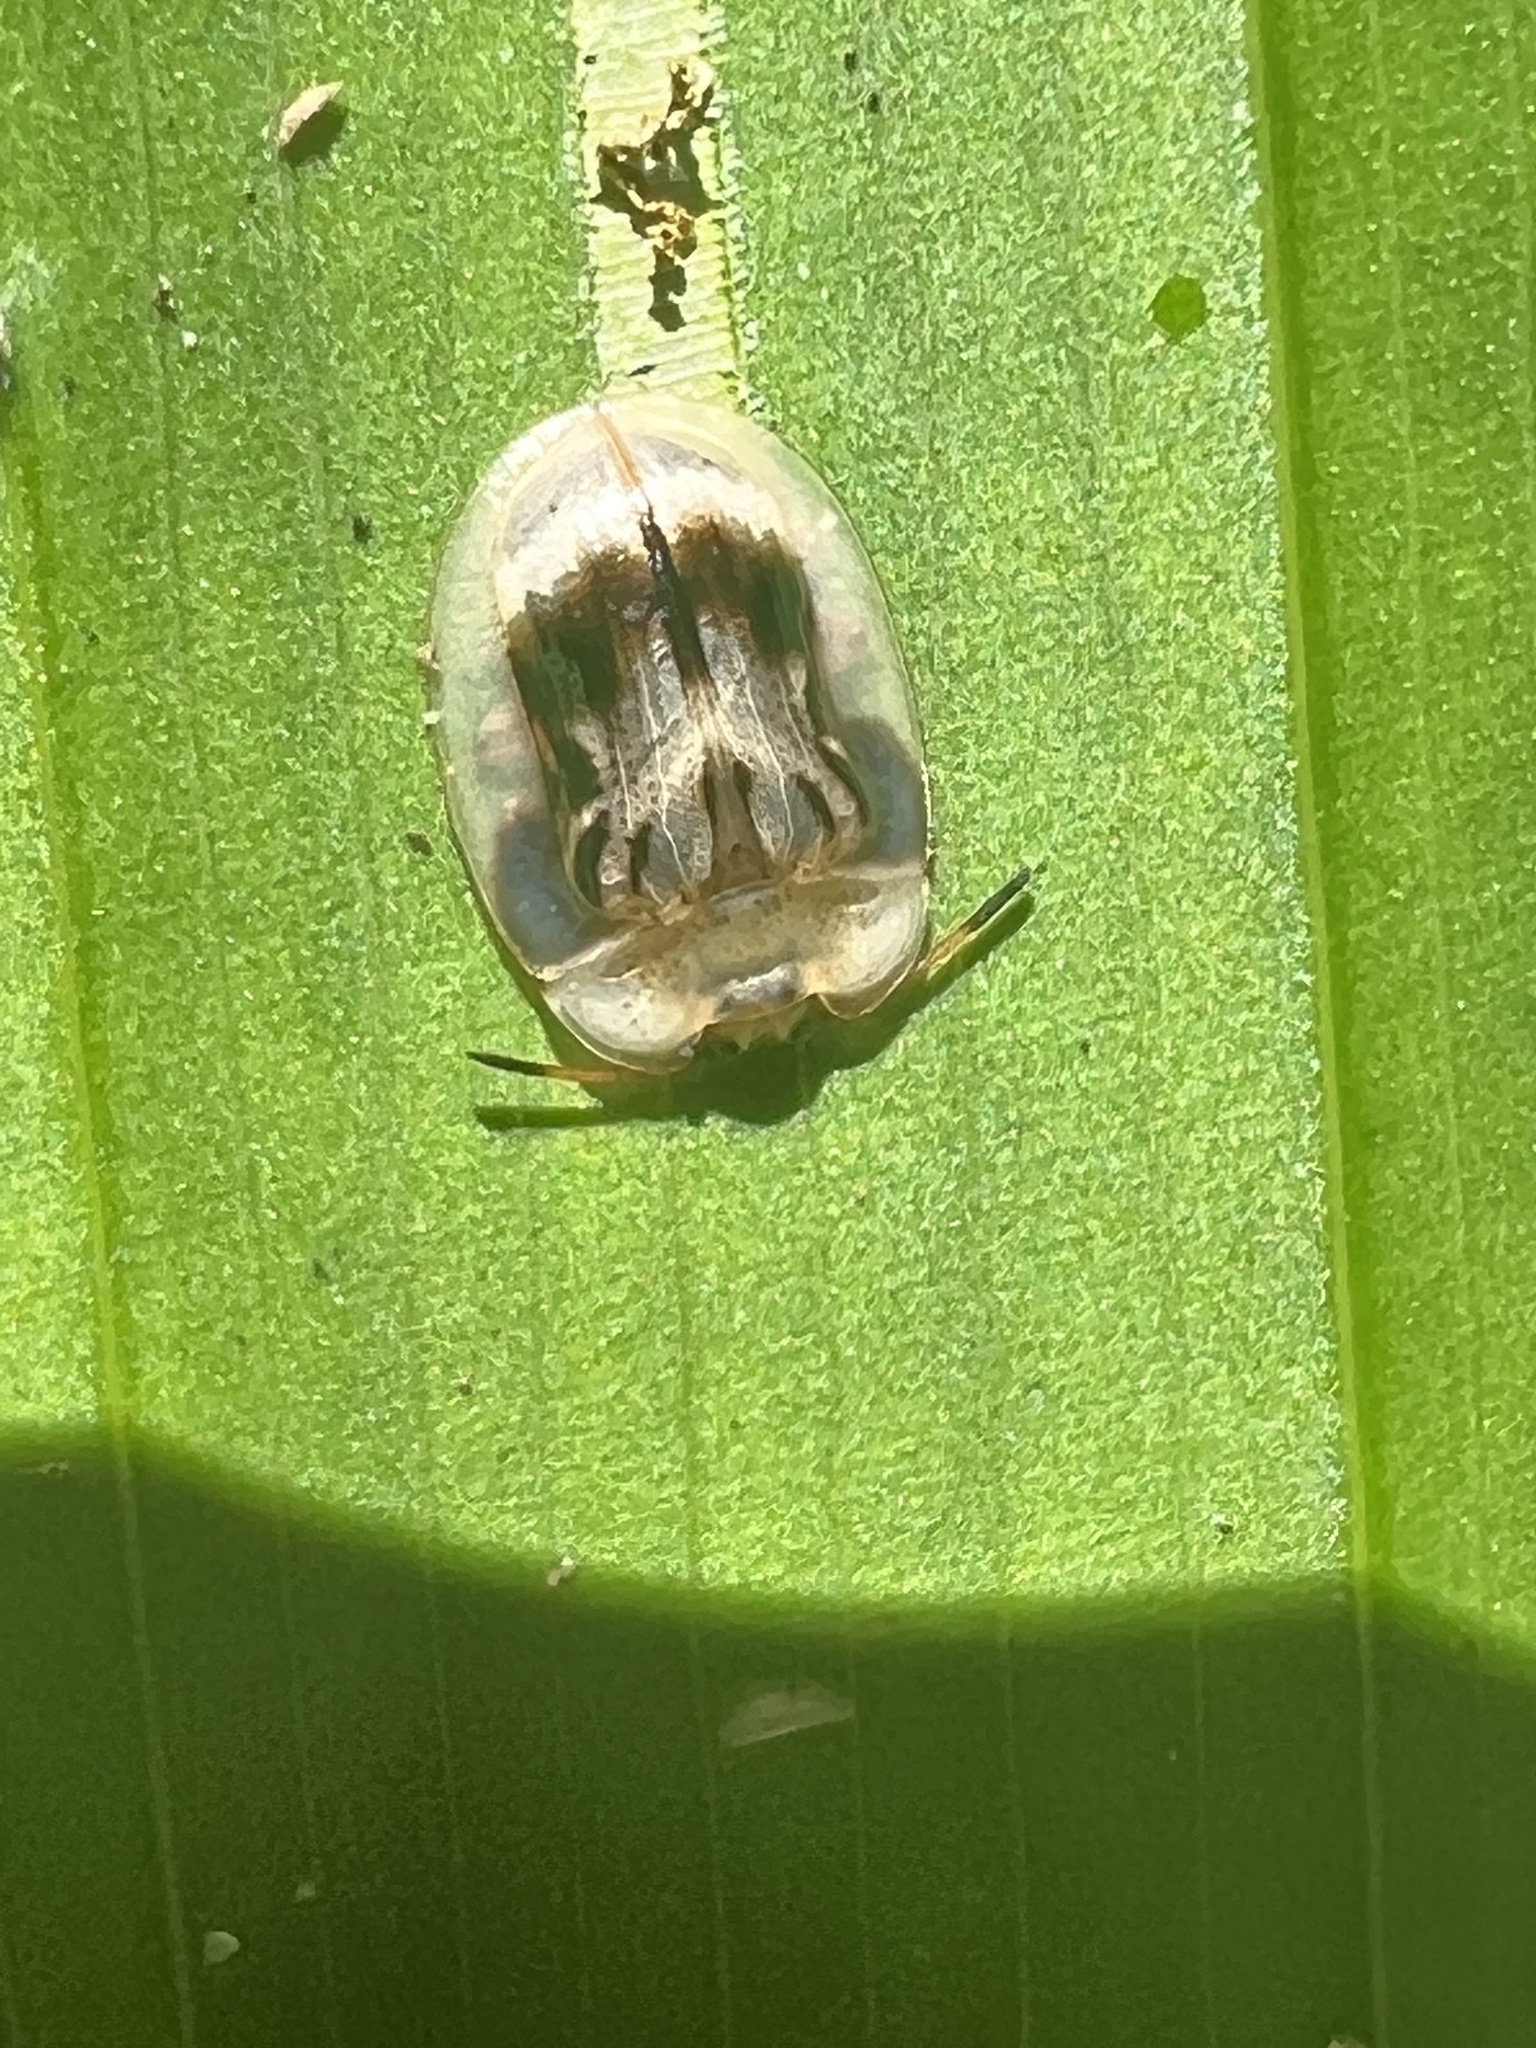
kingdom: Animalia
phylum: Arthropoda
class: Insecta
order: Coleoptera
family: Chrysomelidae
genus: Aslamidium
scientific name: Aslamidium impurum
